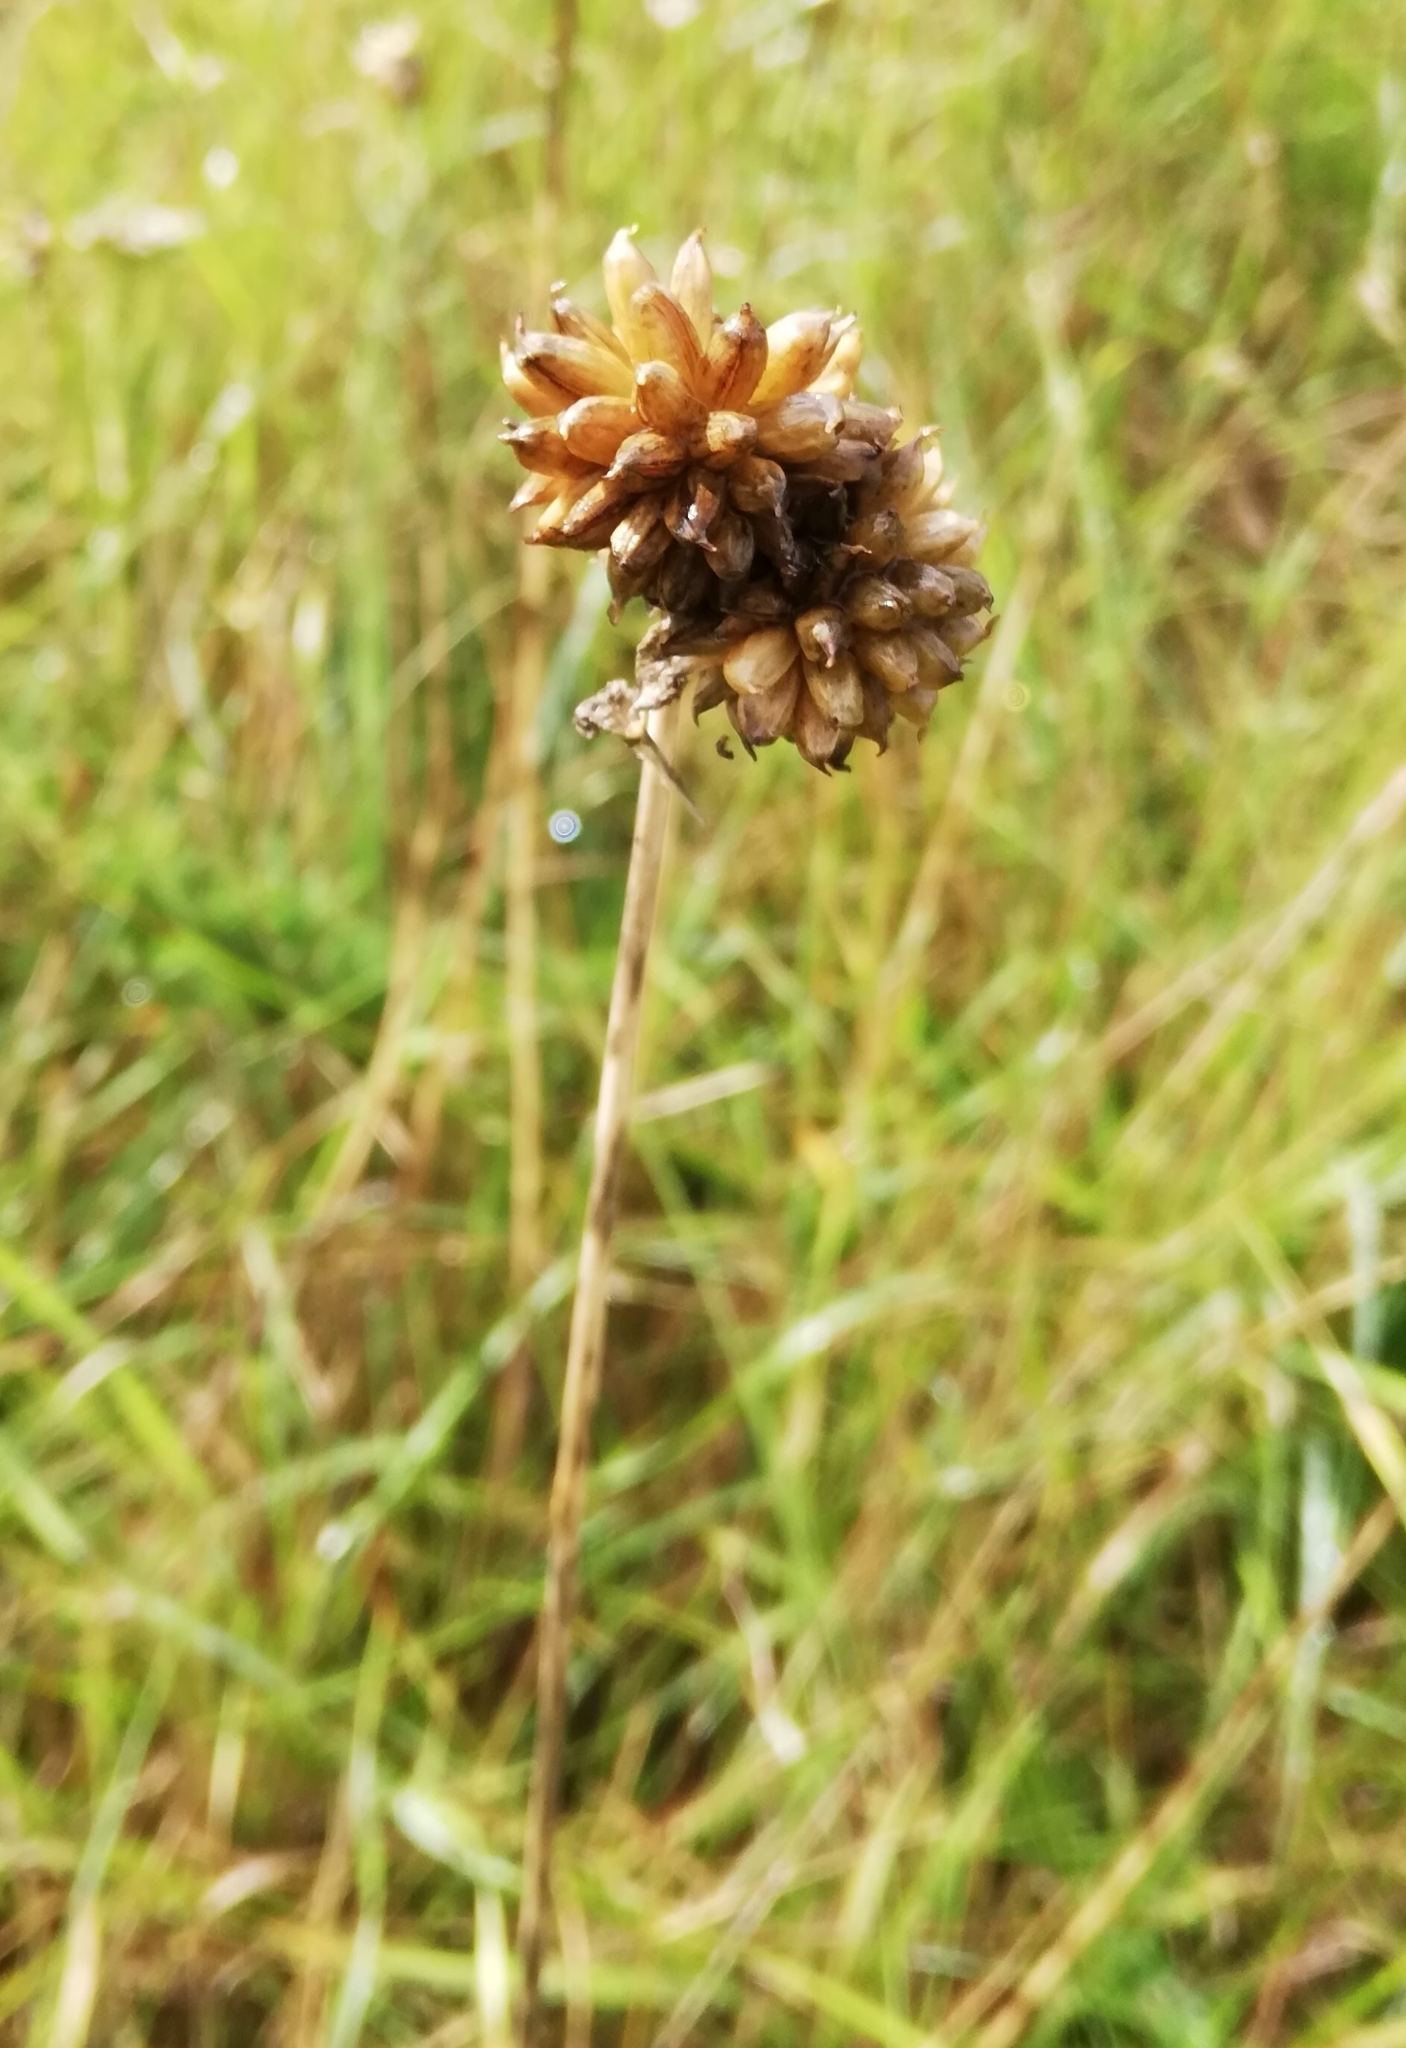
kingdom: Plantae
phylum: Tracheophyta
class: Liliopsida
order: Asparagales
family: Amaryllidaceae
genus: Allium
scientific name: Allium vineale
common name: Crow garlic
